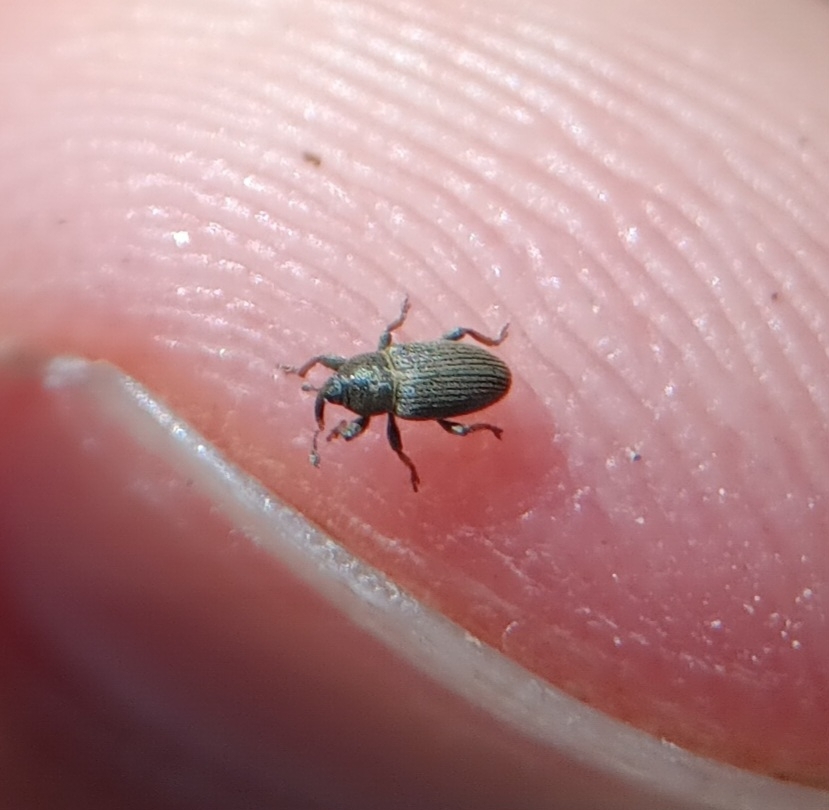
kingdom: Animalia
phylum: Arthropoda
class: Insecta
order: Coleoptera
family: Curculionidae
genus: Tychius
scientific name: Tychius picirostris
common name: Clover seed weevil
